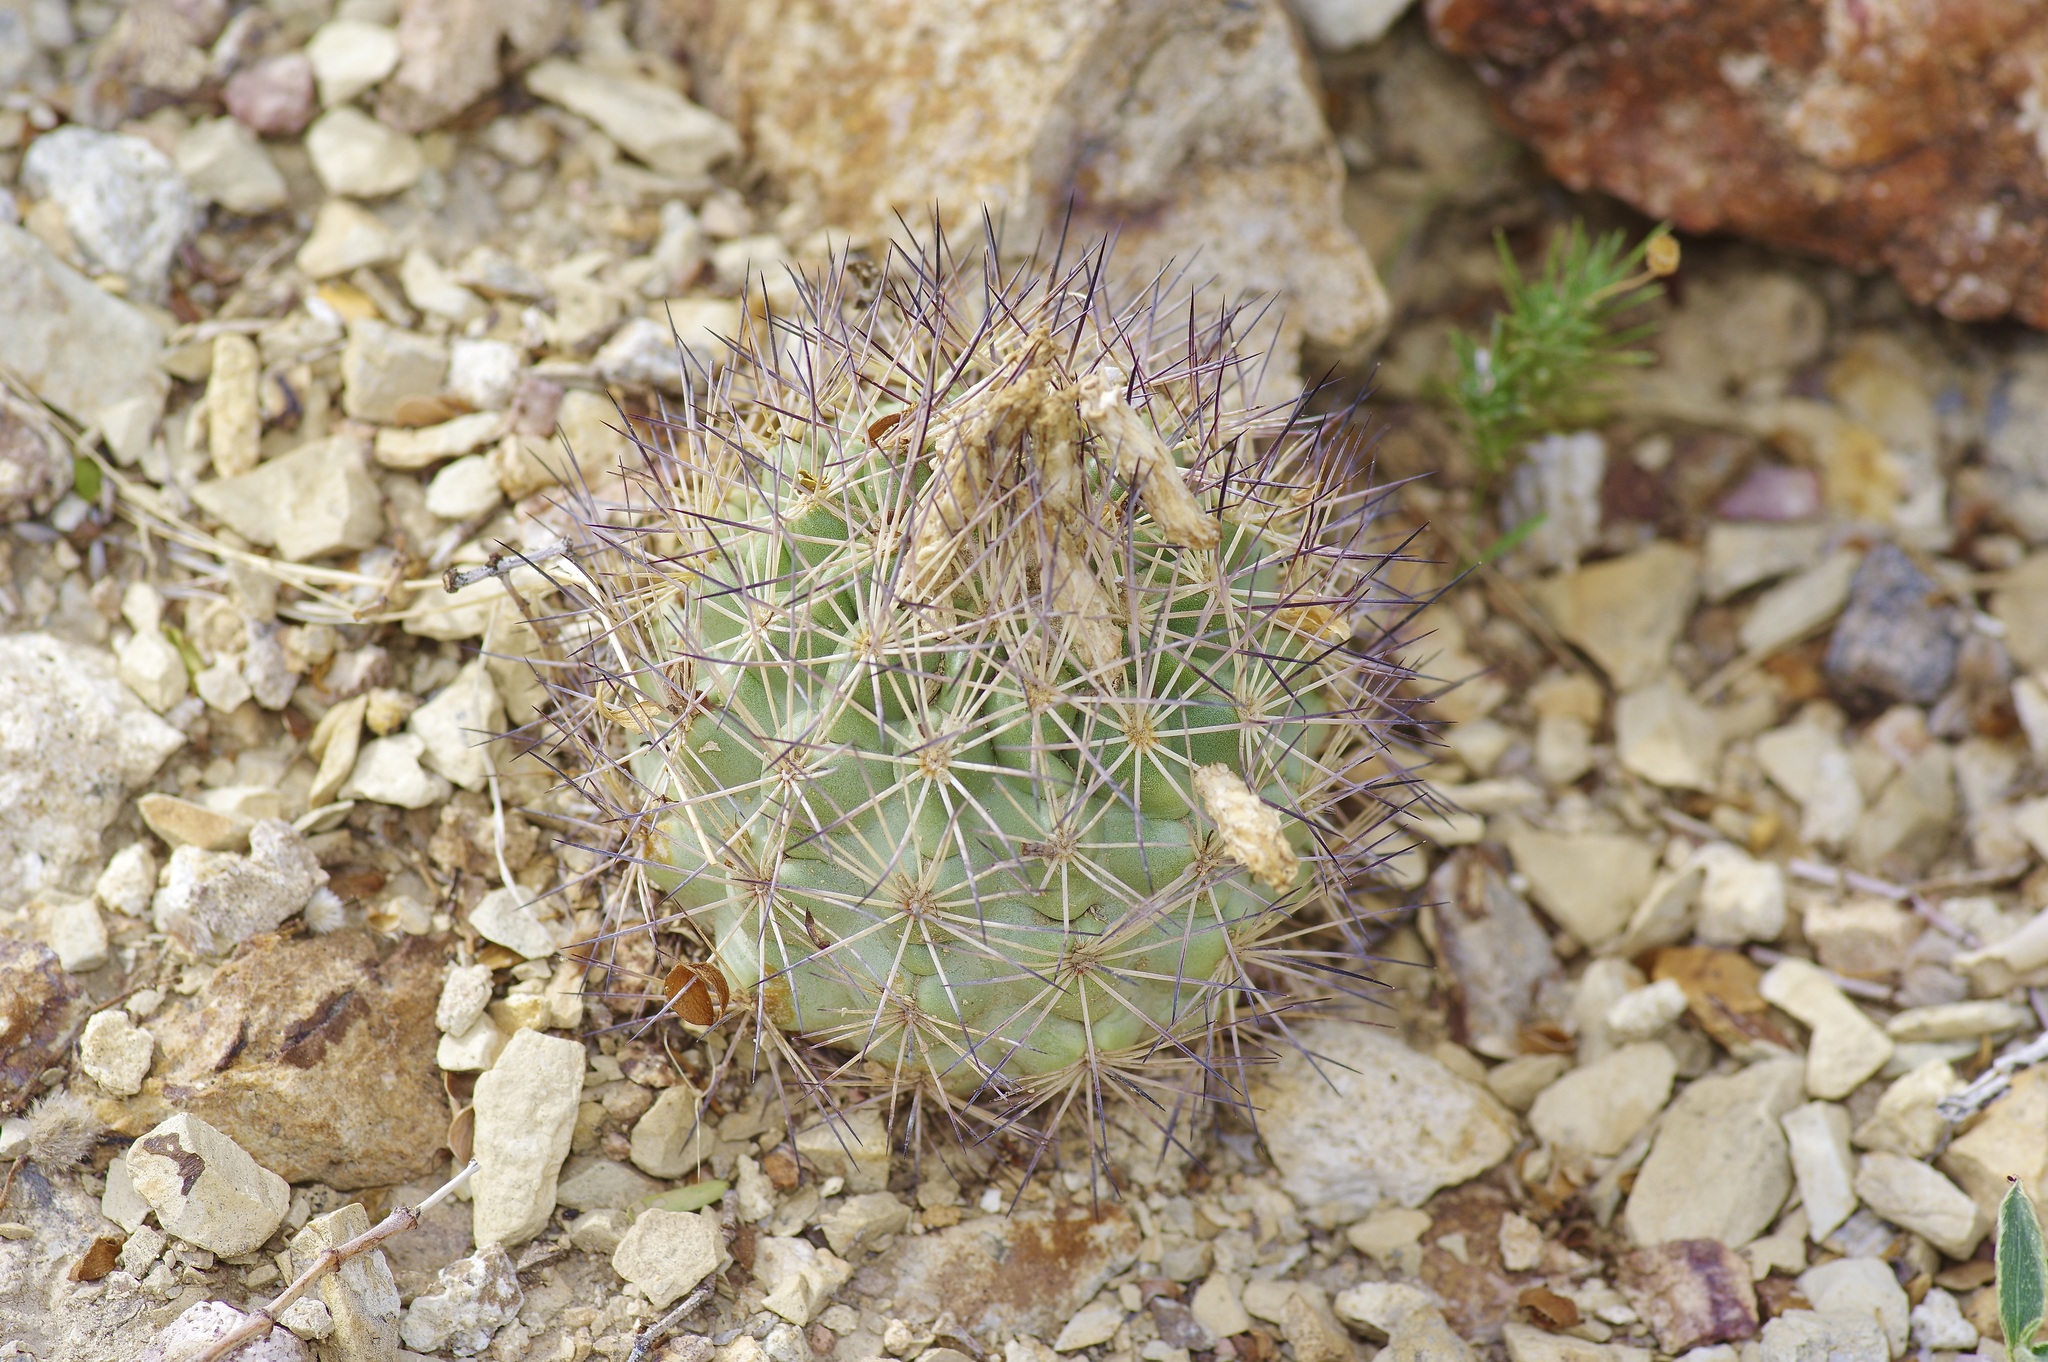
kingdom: Plantae
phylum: Tracheophyta
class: Magnoliopsida
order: Caryophyllales
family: Cactaceae
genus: Sclerocactus
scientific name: Sclerocactus warnockii
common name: Pineapple cactus
